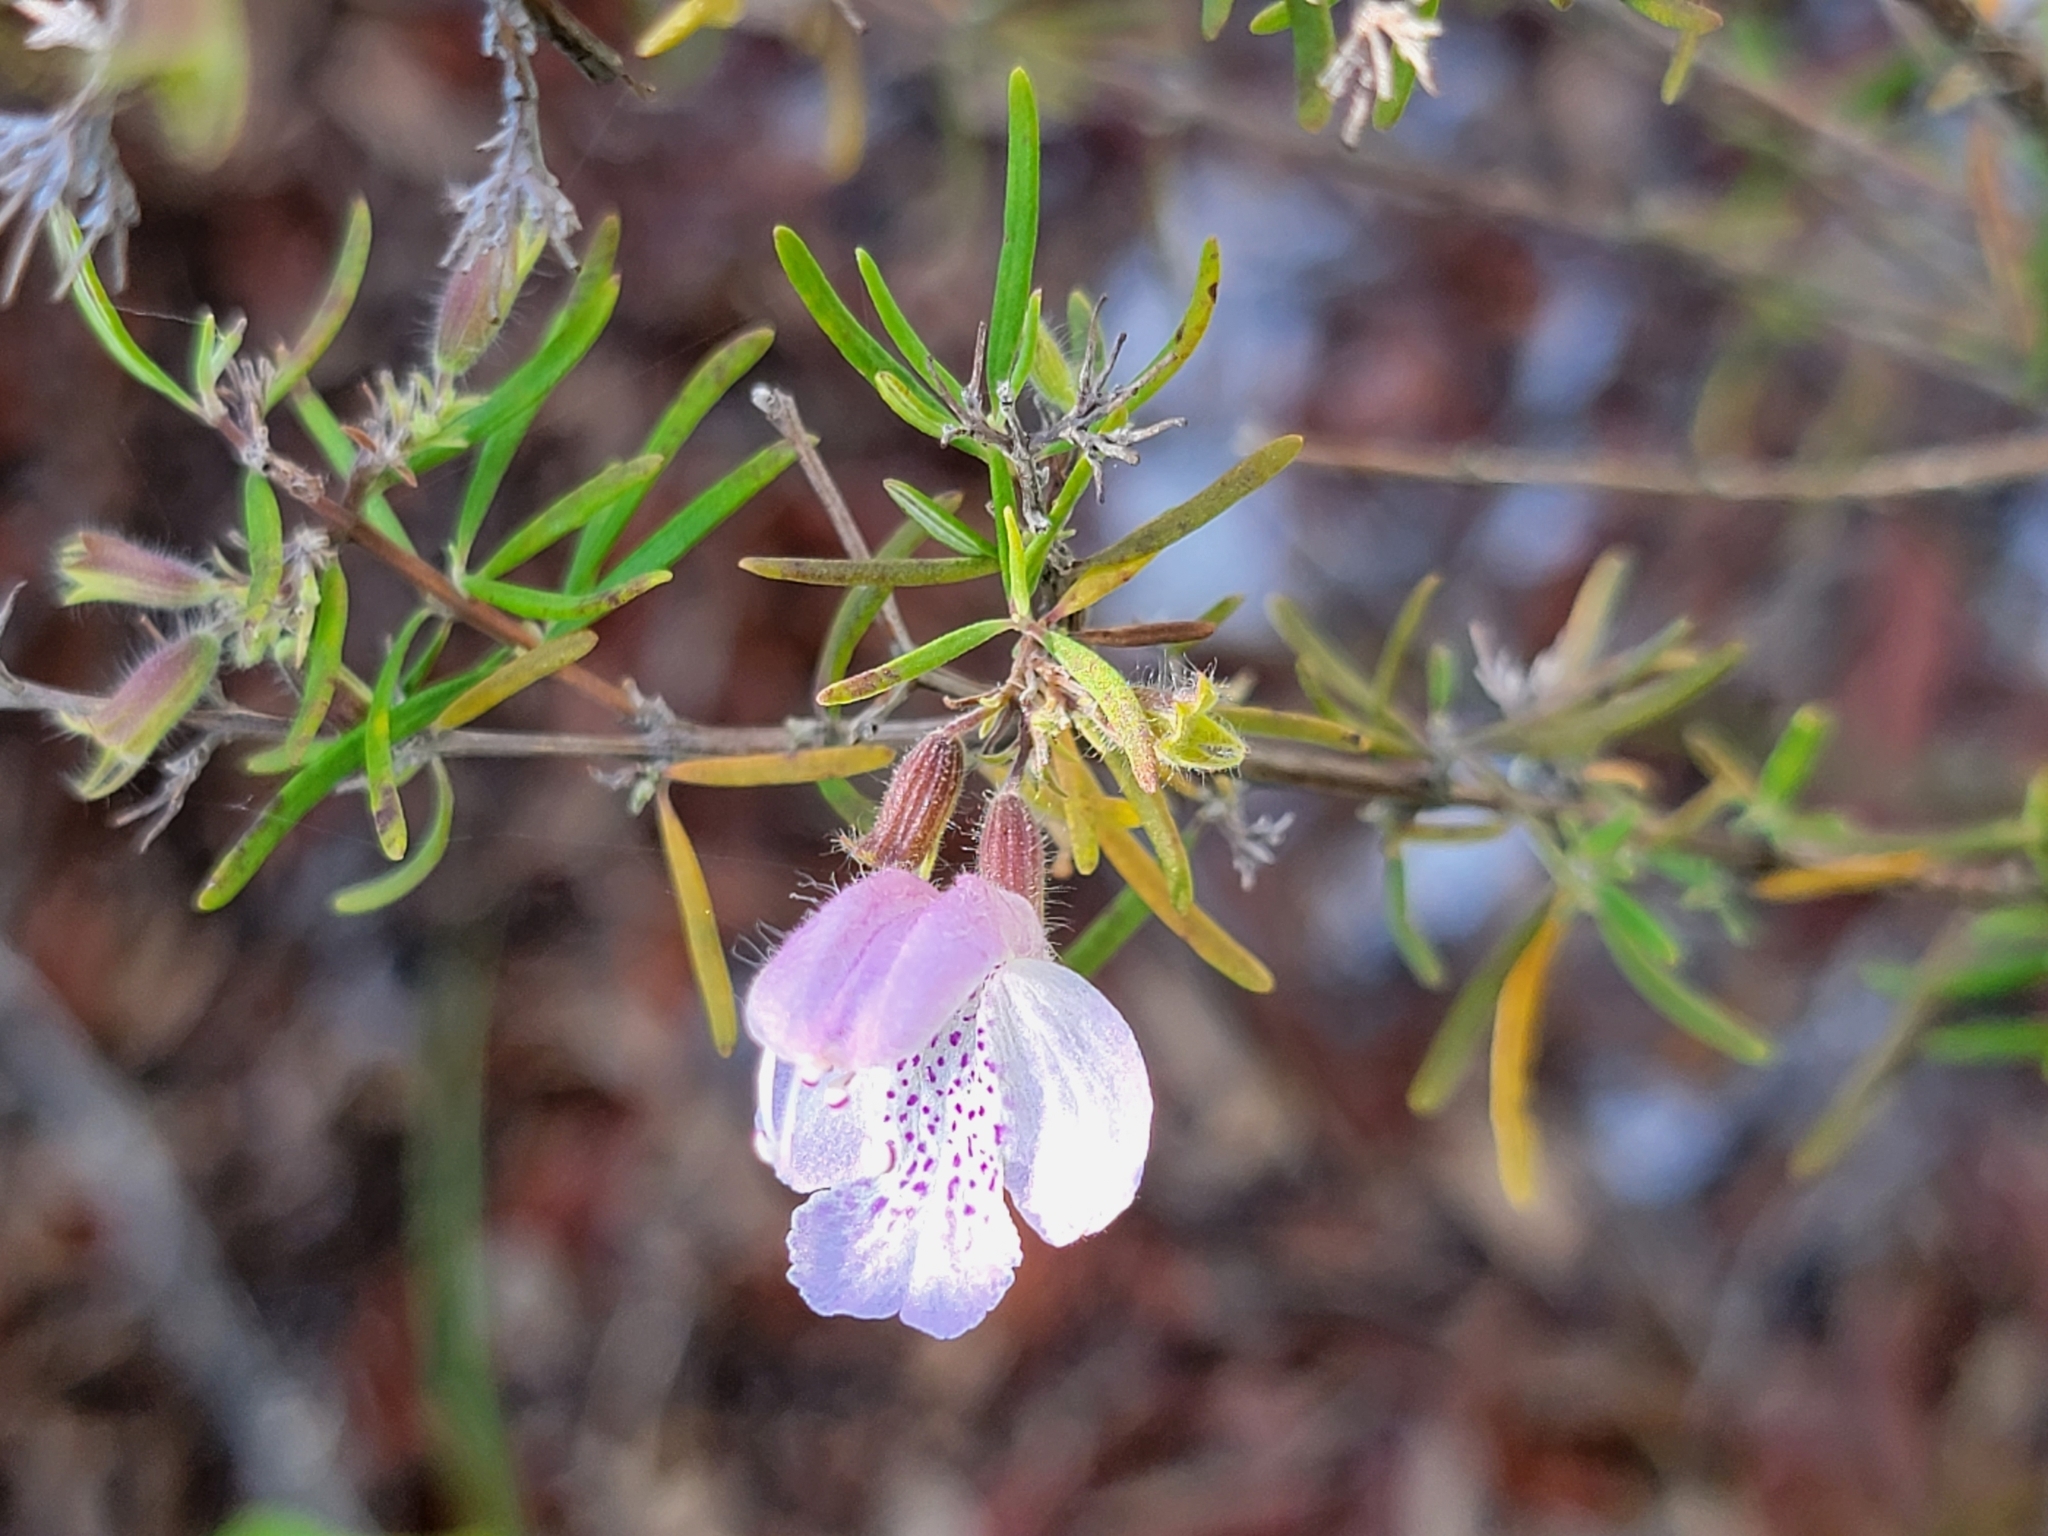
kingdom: Plantae
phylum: Tracheophyta
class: Magnoliopsida
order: Lamiales
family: Lamiaceae
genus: Conradina
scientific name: Conradina grandiflora
